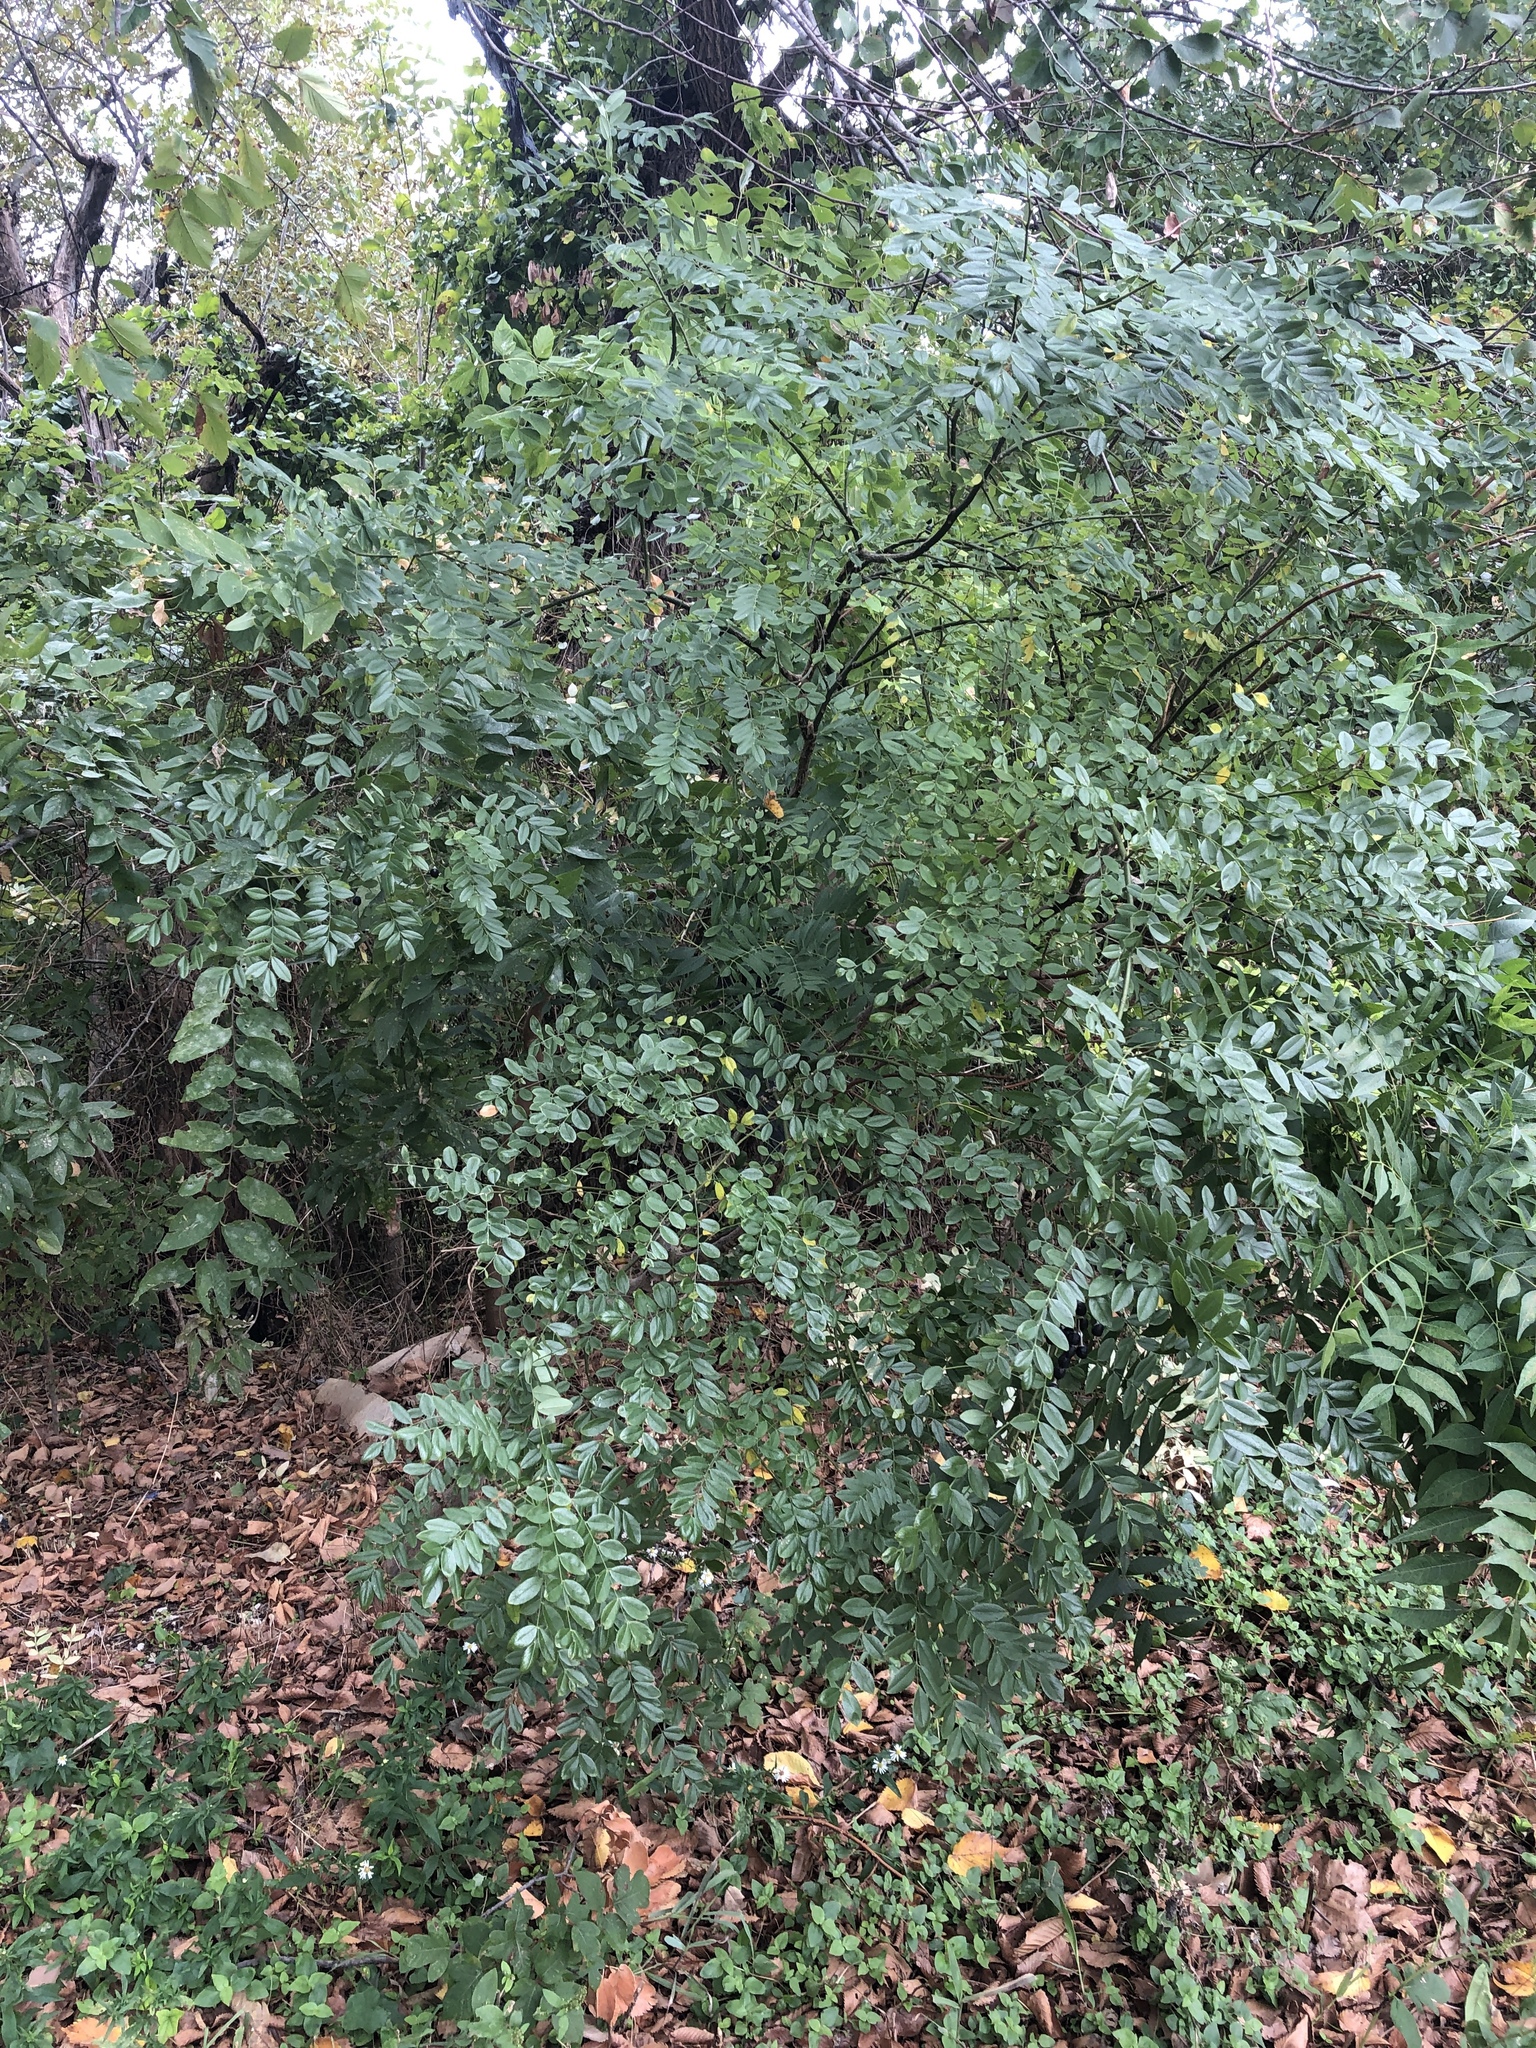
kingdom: Plantae
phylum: Tracheophyta
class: Magnoliopsida
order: Fabales
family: Fabaceae
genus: Styphnolobium
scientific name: Styphnolobium affine
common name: Texas sophora
